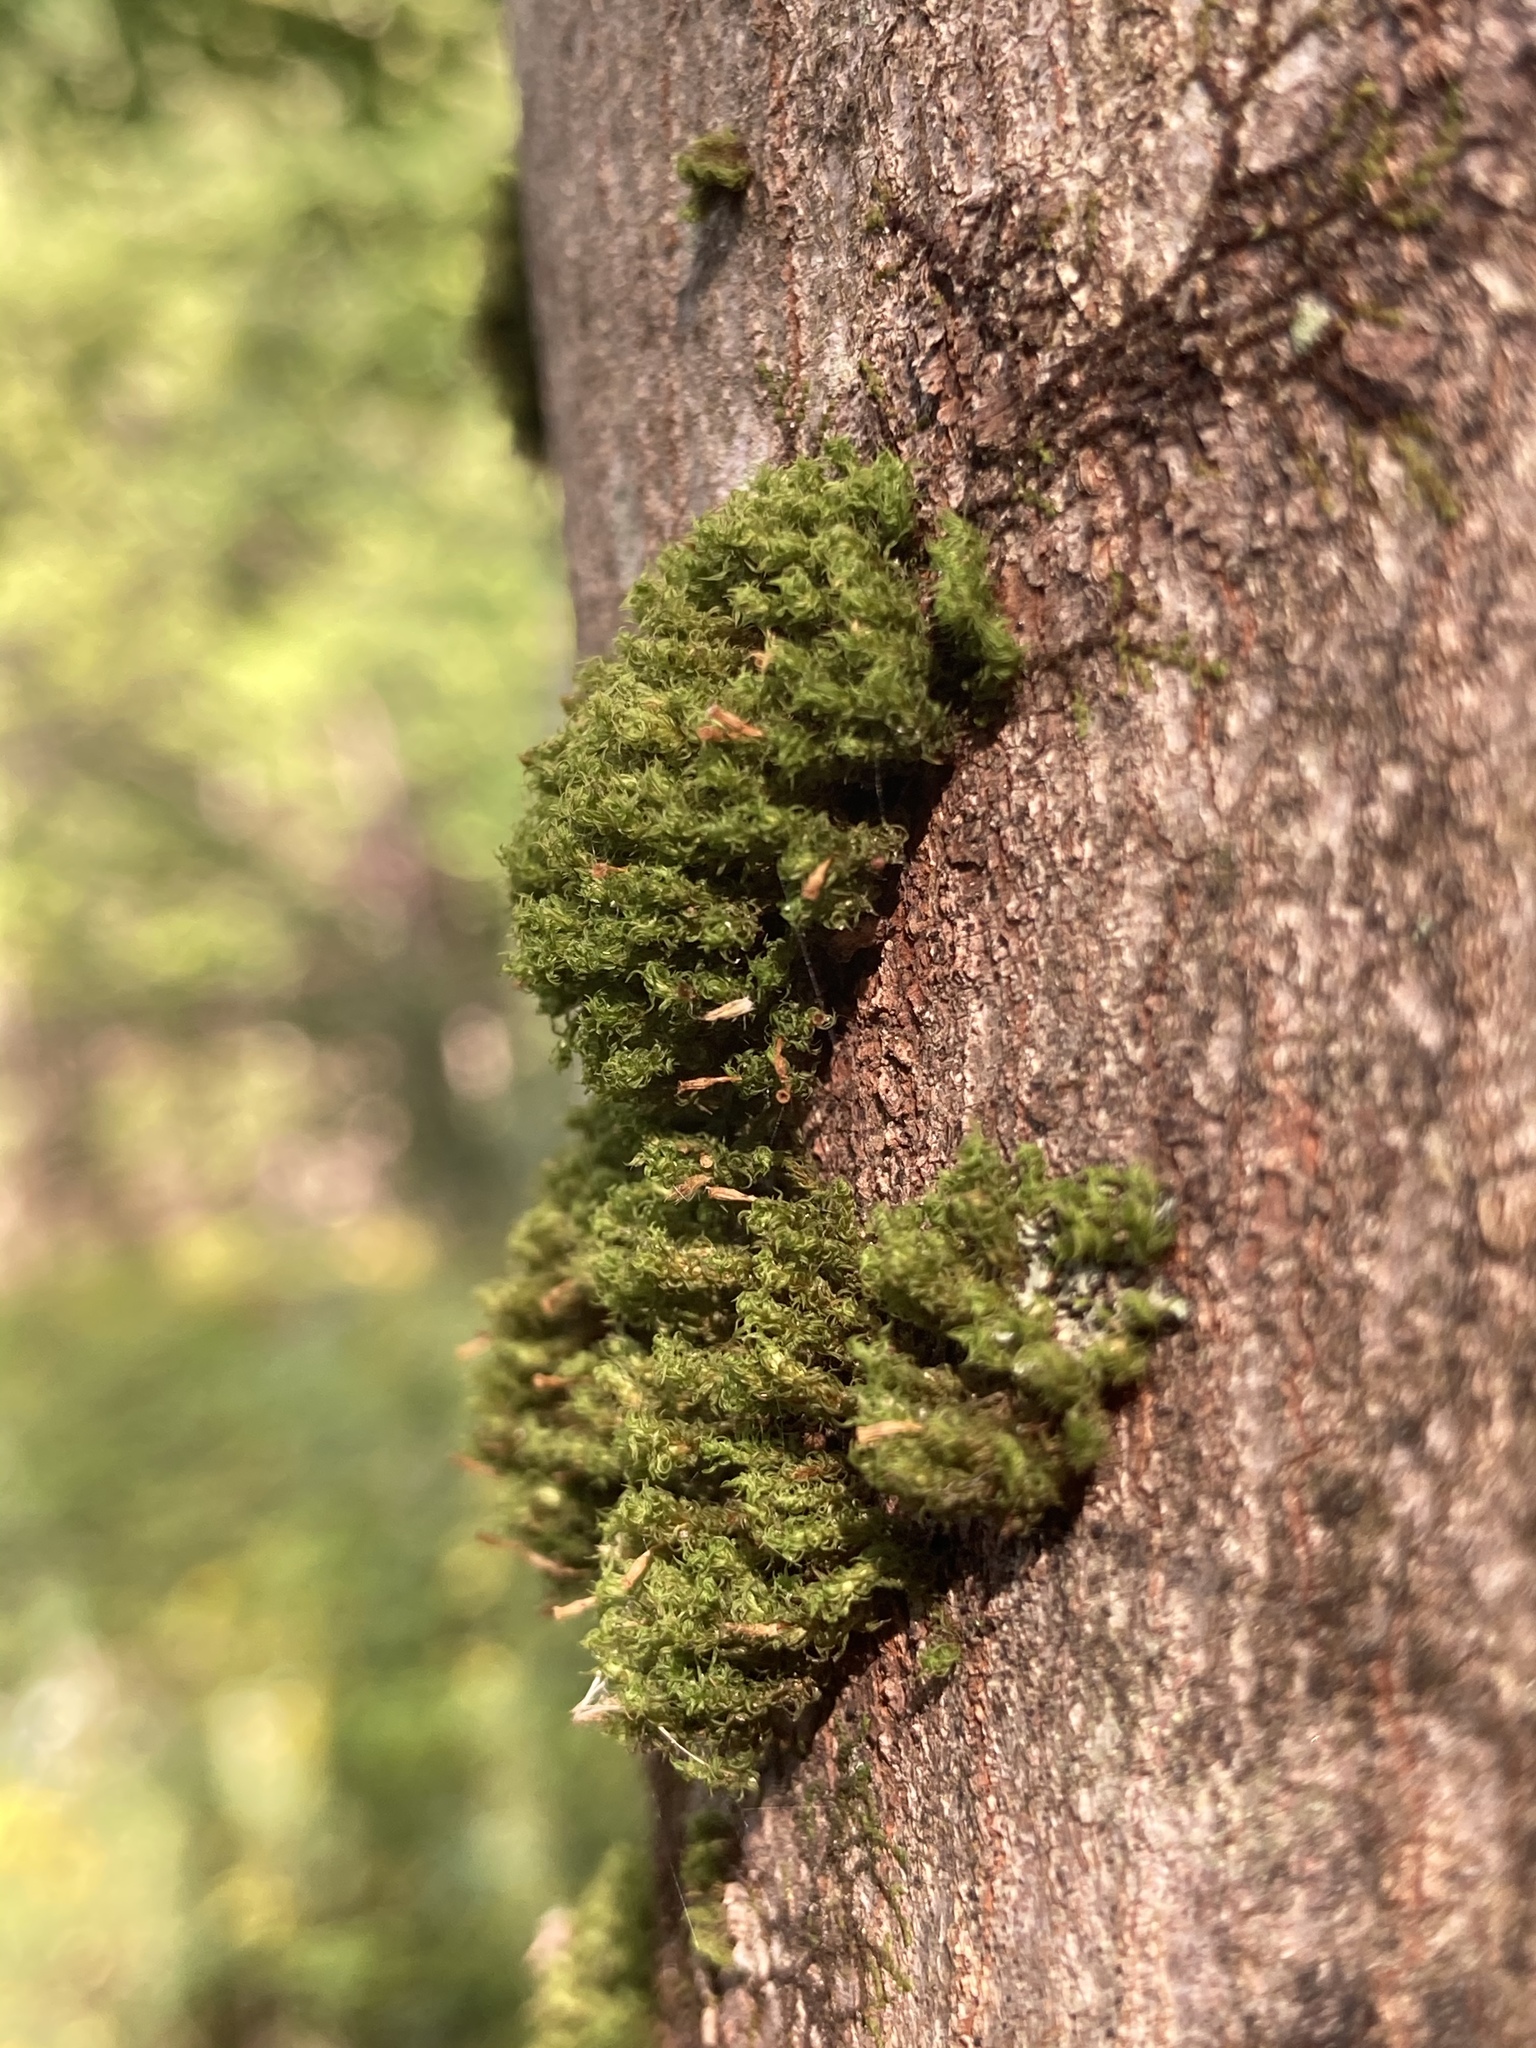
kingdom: Plantae
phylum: Bryophyta
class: Bryopsida
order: Orthotrichales
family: Orthotrichaceae
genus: Ulota
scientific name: Ulota crispa
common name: Crisped pincushion moss
